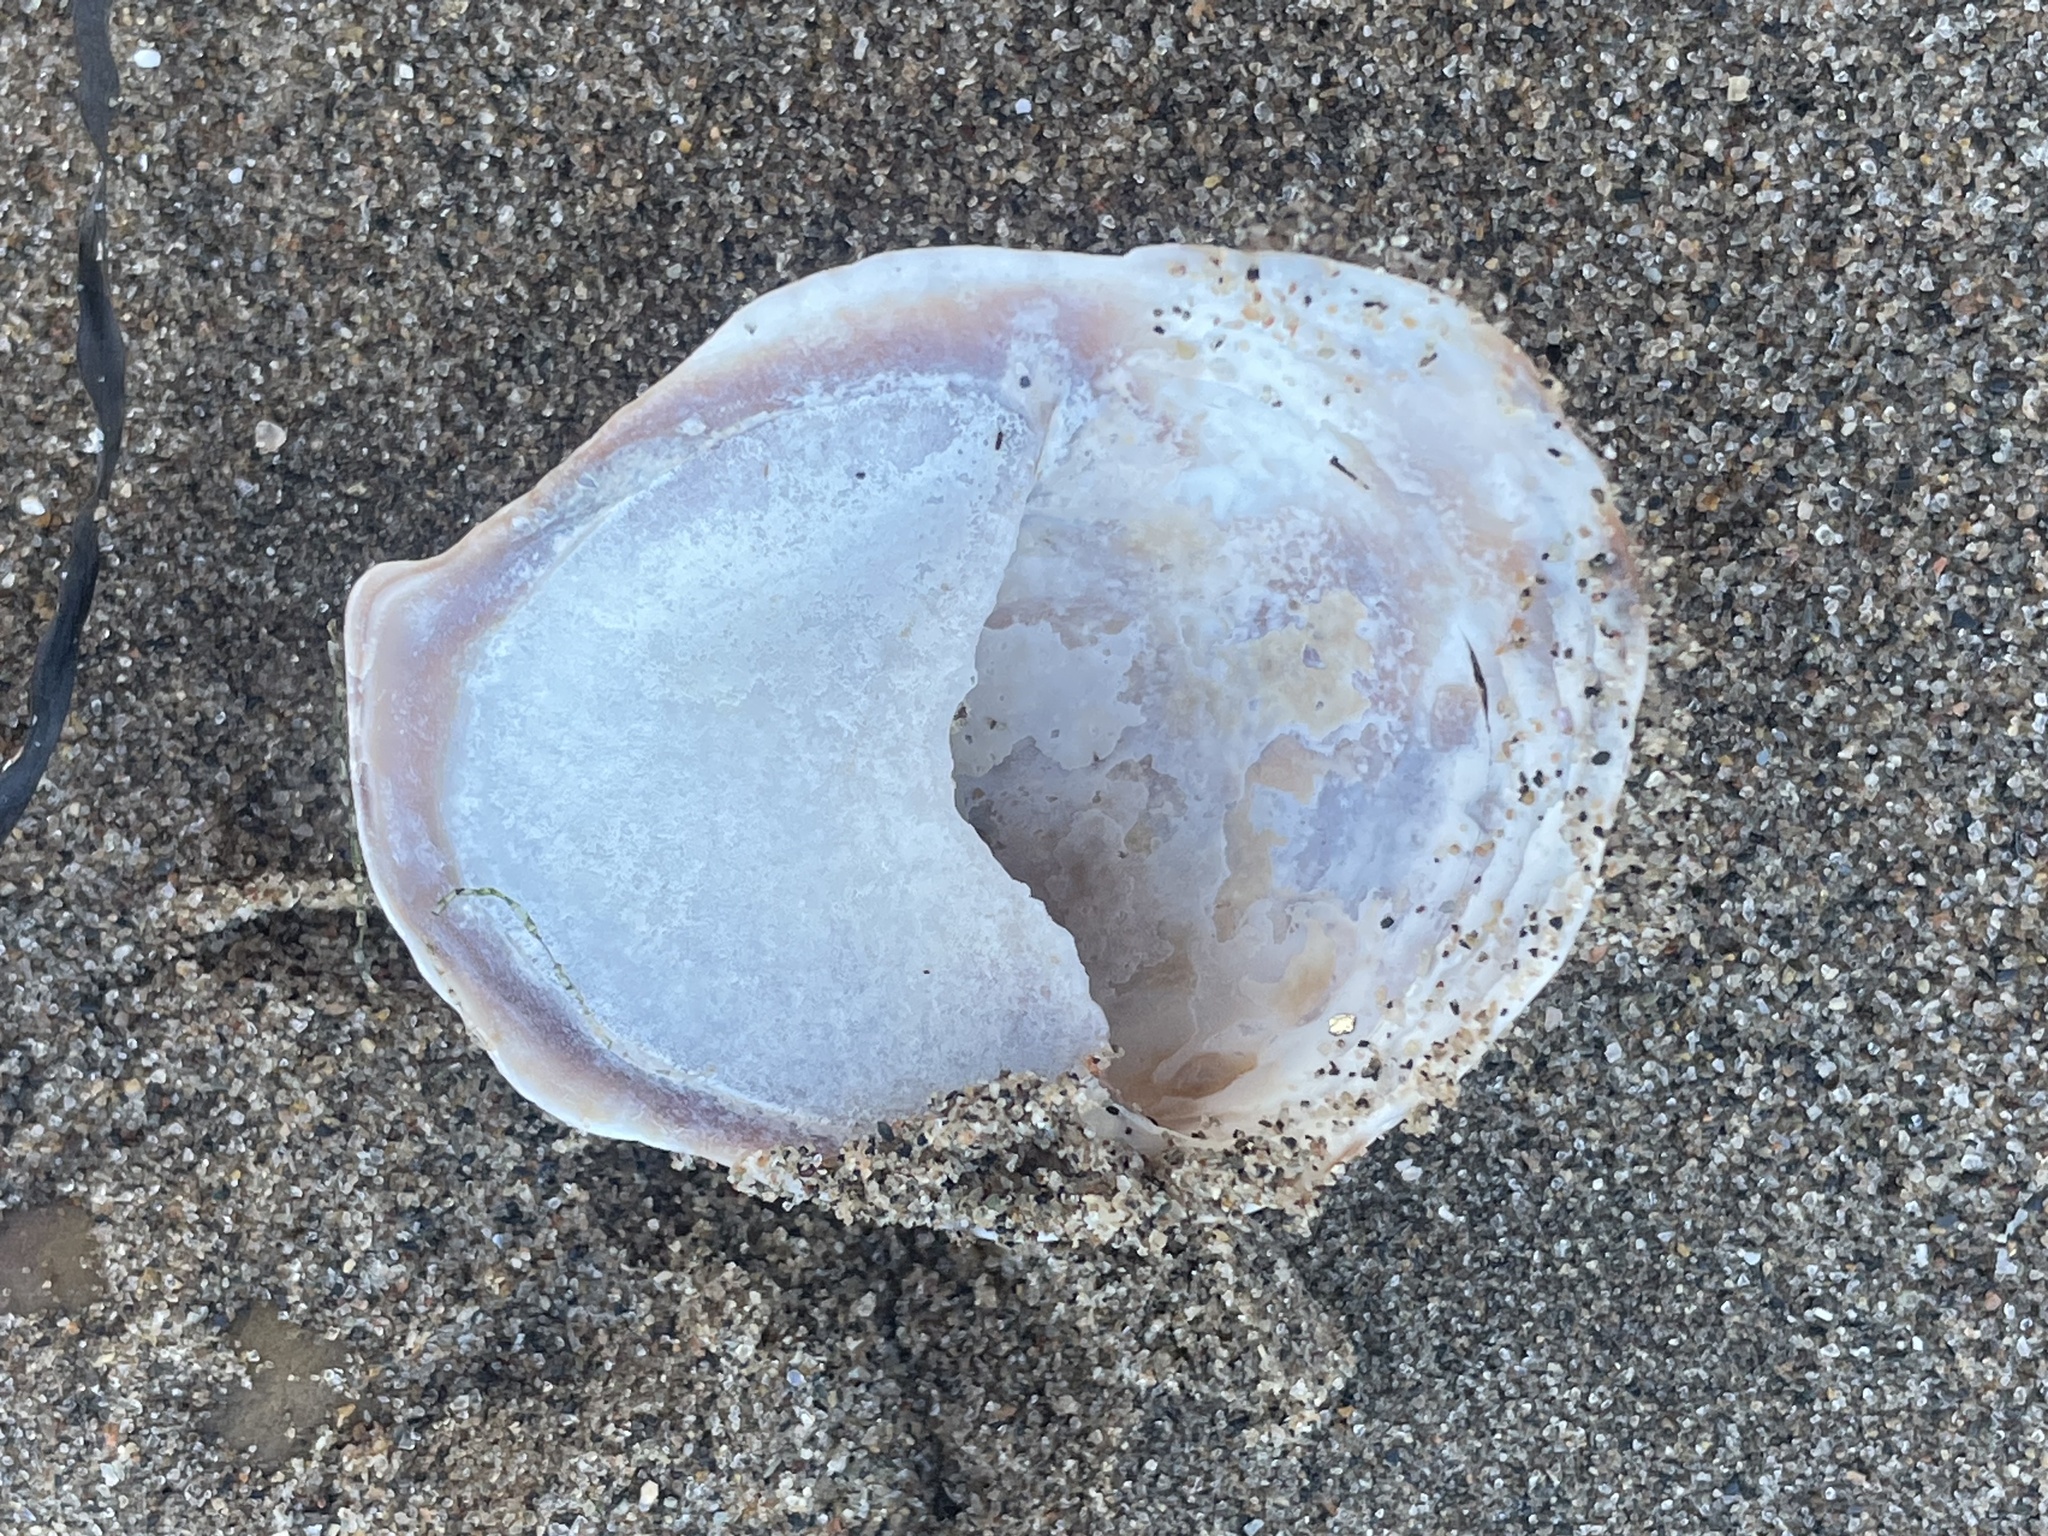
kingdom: Animalia
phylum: Mollusca
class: Gastropoda
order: Littorinimorpha
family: Calyptraeidae
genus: Crepidula
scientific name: Crepidula fornicata
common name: Slipper limpet
